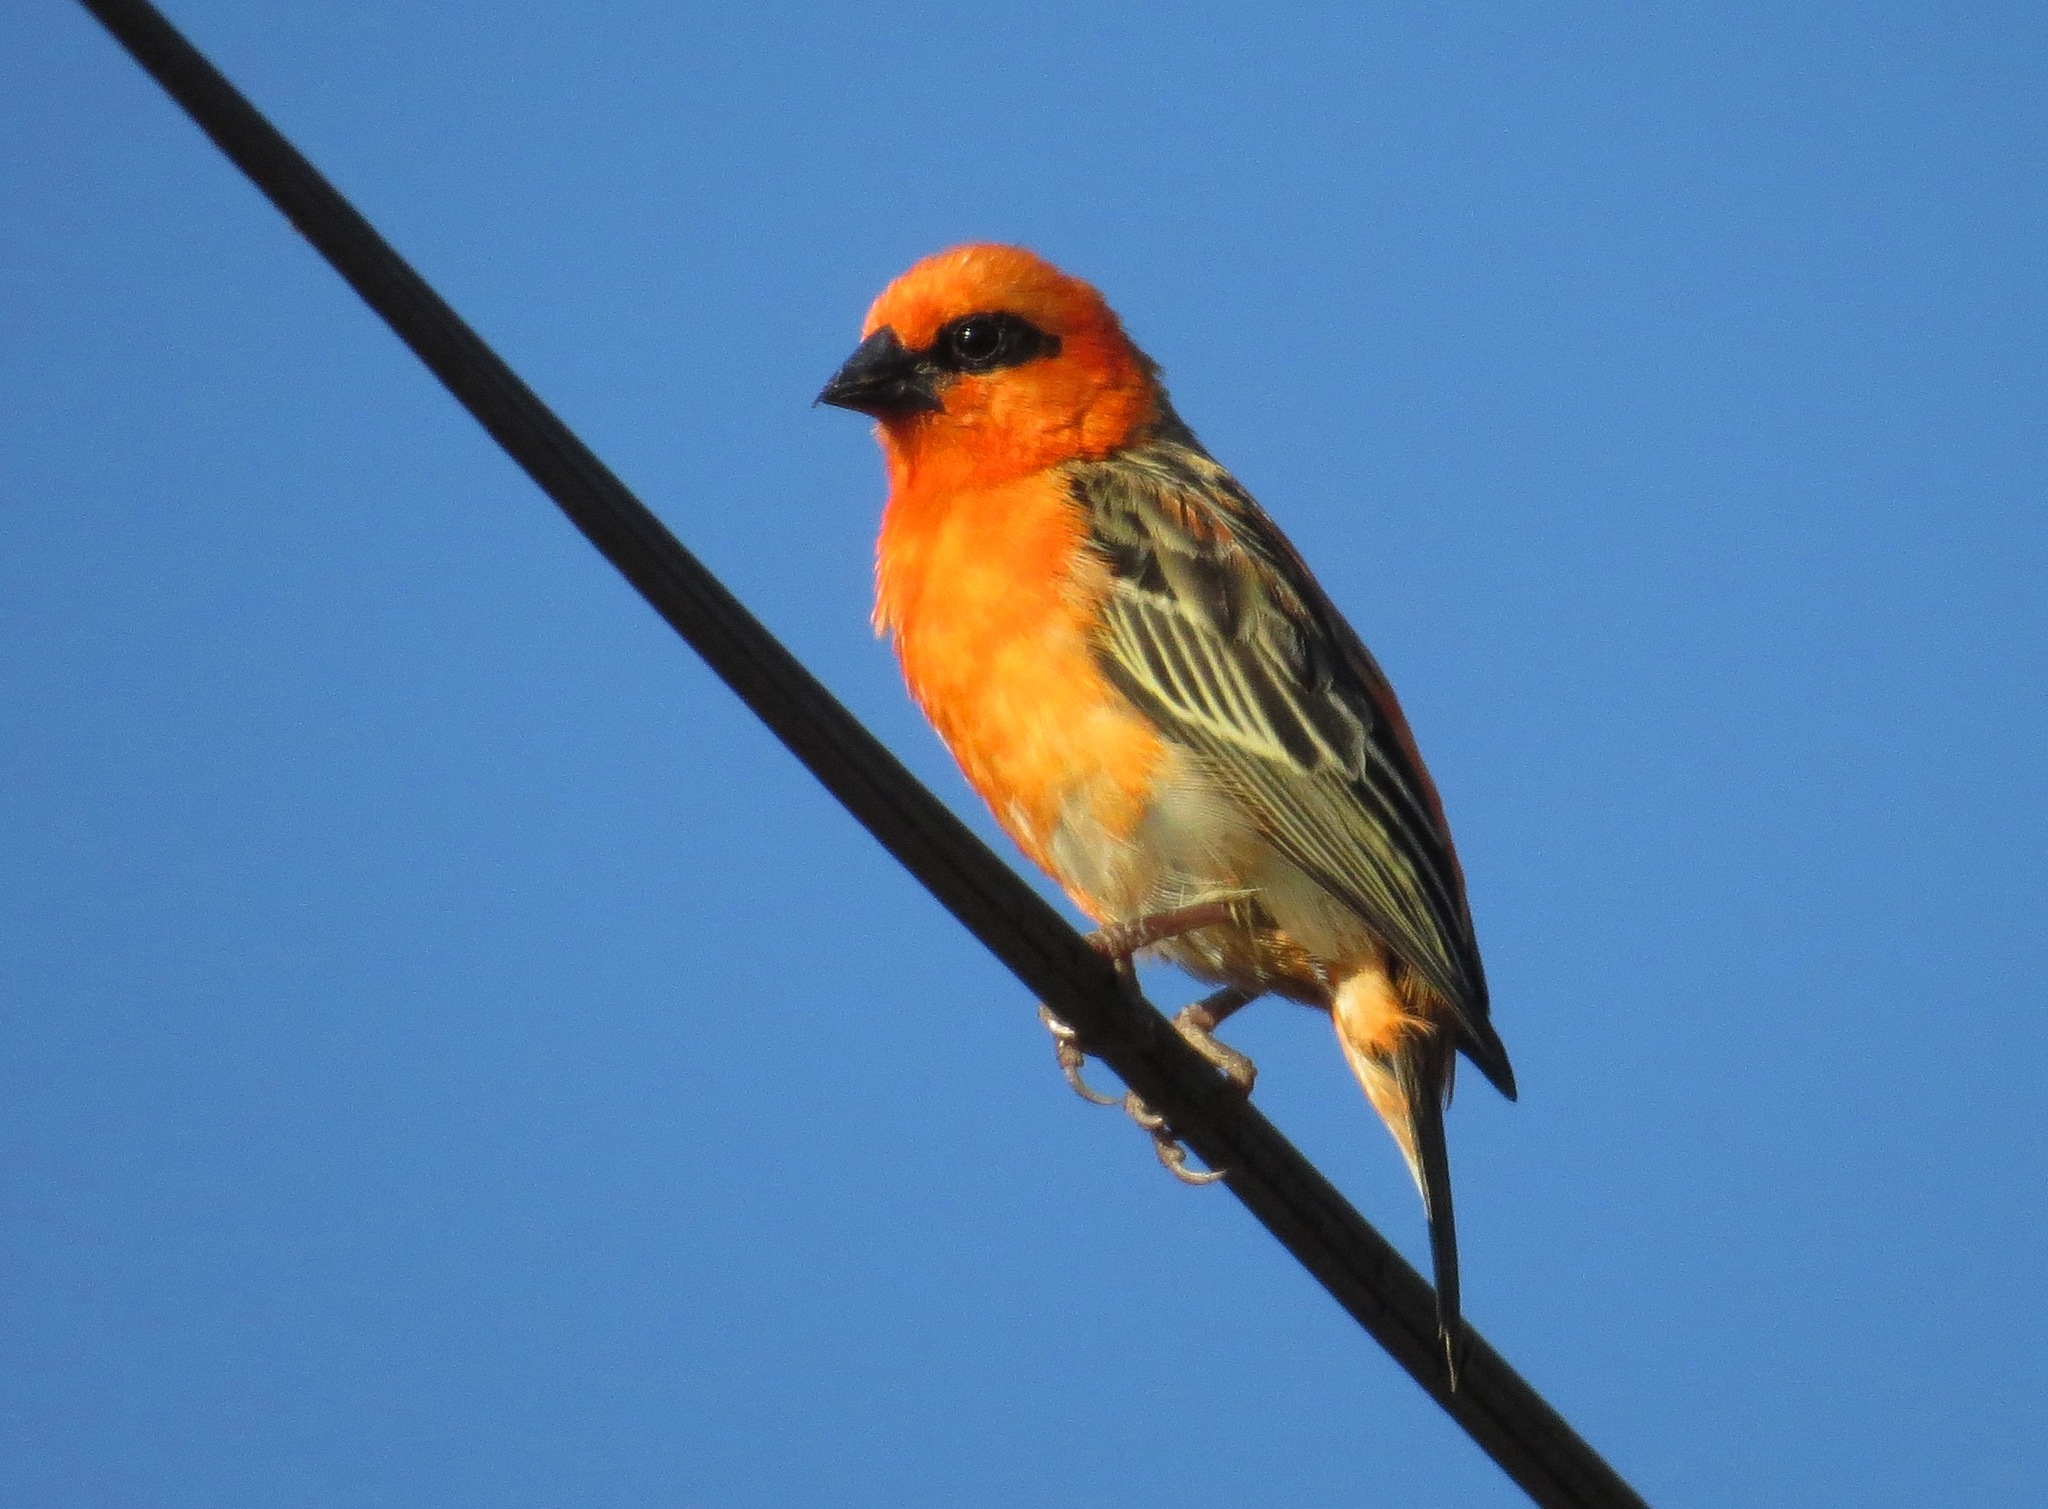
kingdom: Animalia
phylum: Chordata
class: Aves
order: Passeriformes
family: Ploceidae
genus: Foudia
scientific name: Foudia madagascariensis
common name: Red fody
